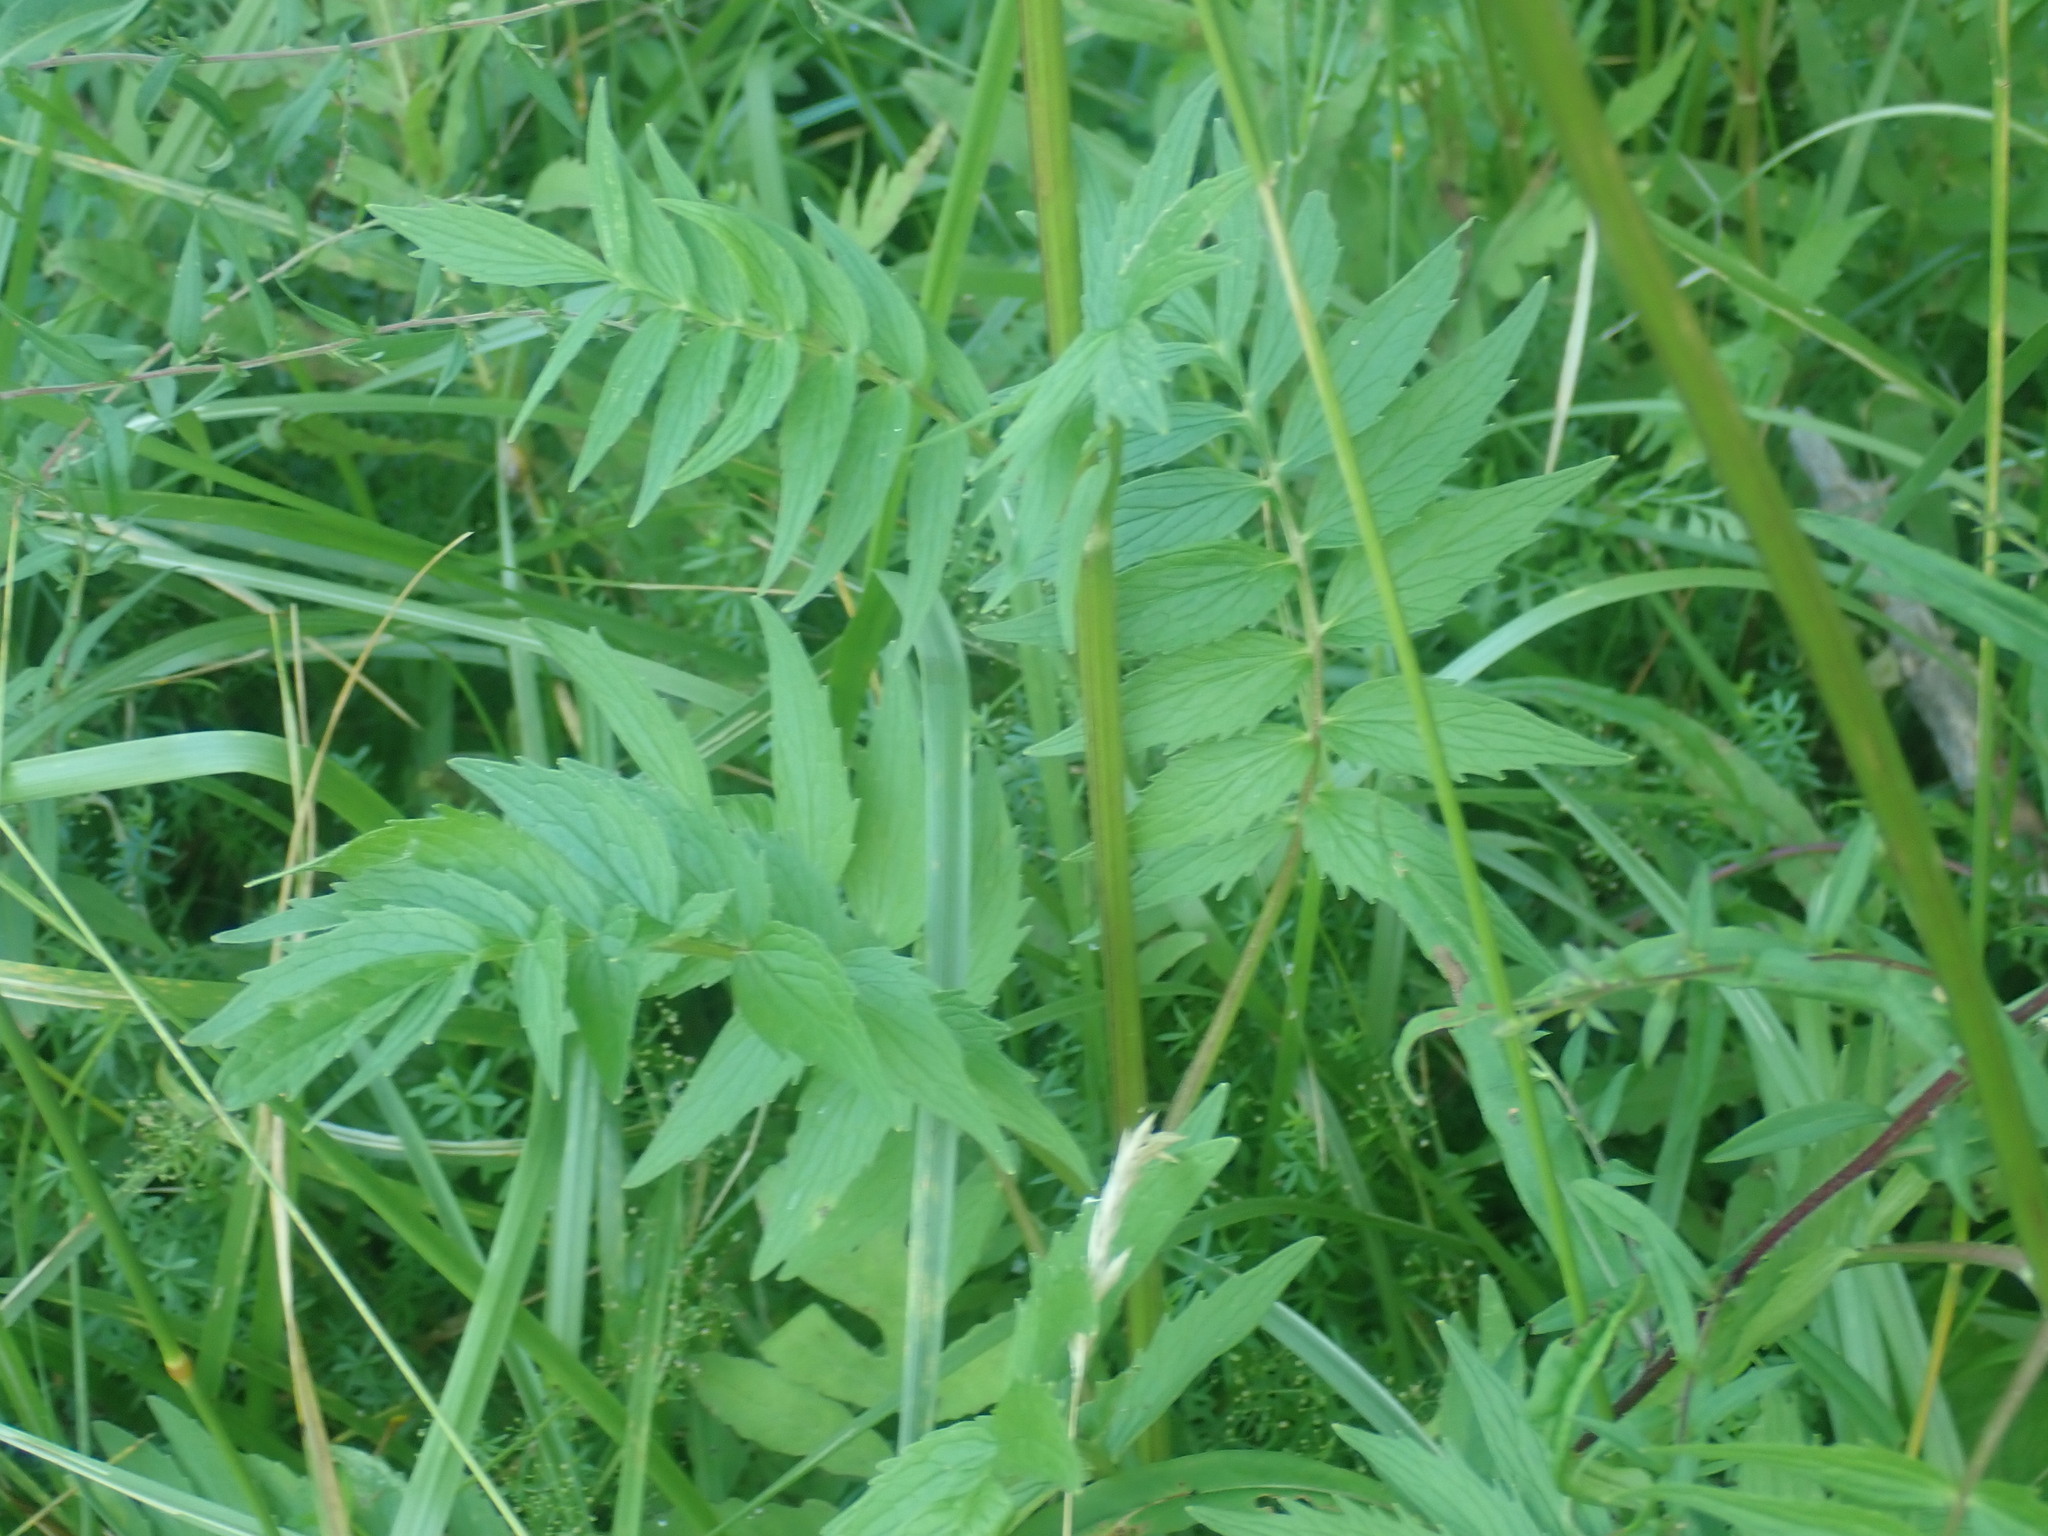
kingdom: Plantae
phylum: Tracheophyta
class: Magnoliopsida
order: Dipsacales
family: Caprifoliaceae
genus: Valeriana
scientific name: Valeriana officinalis
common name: Common valerian
